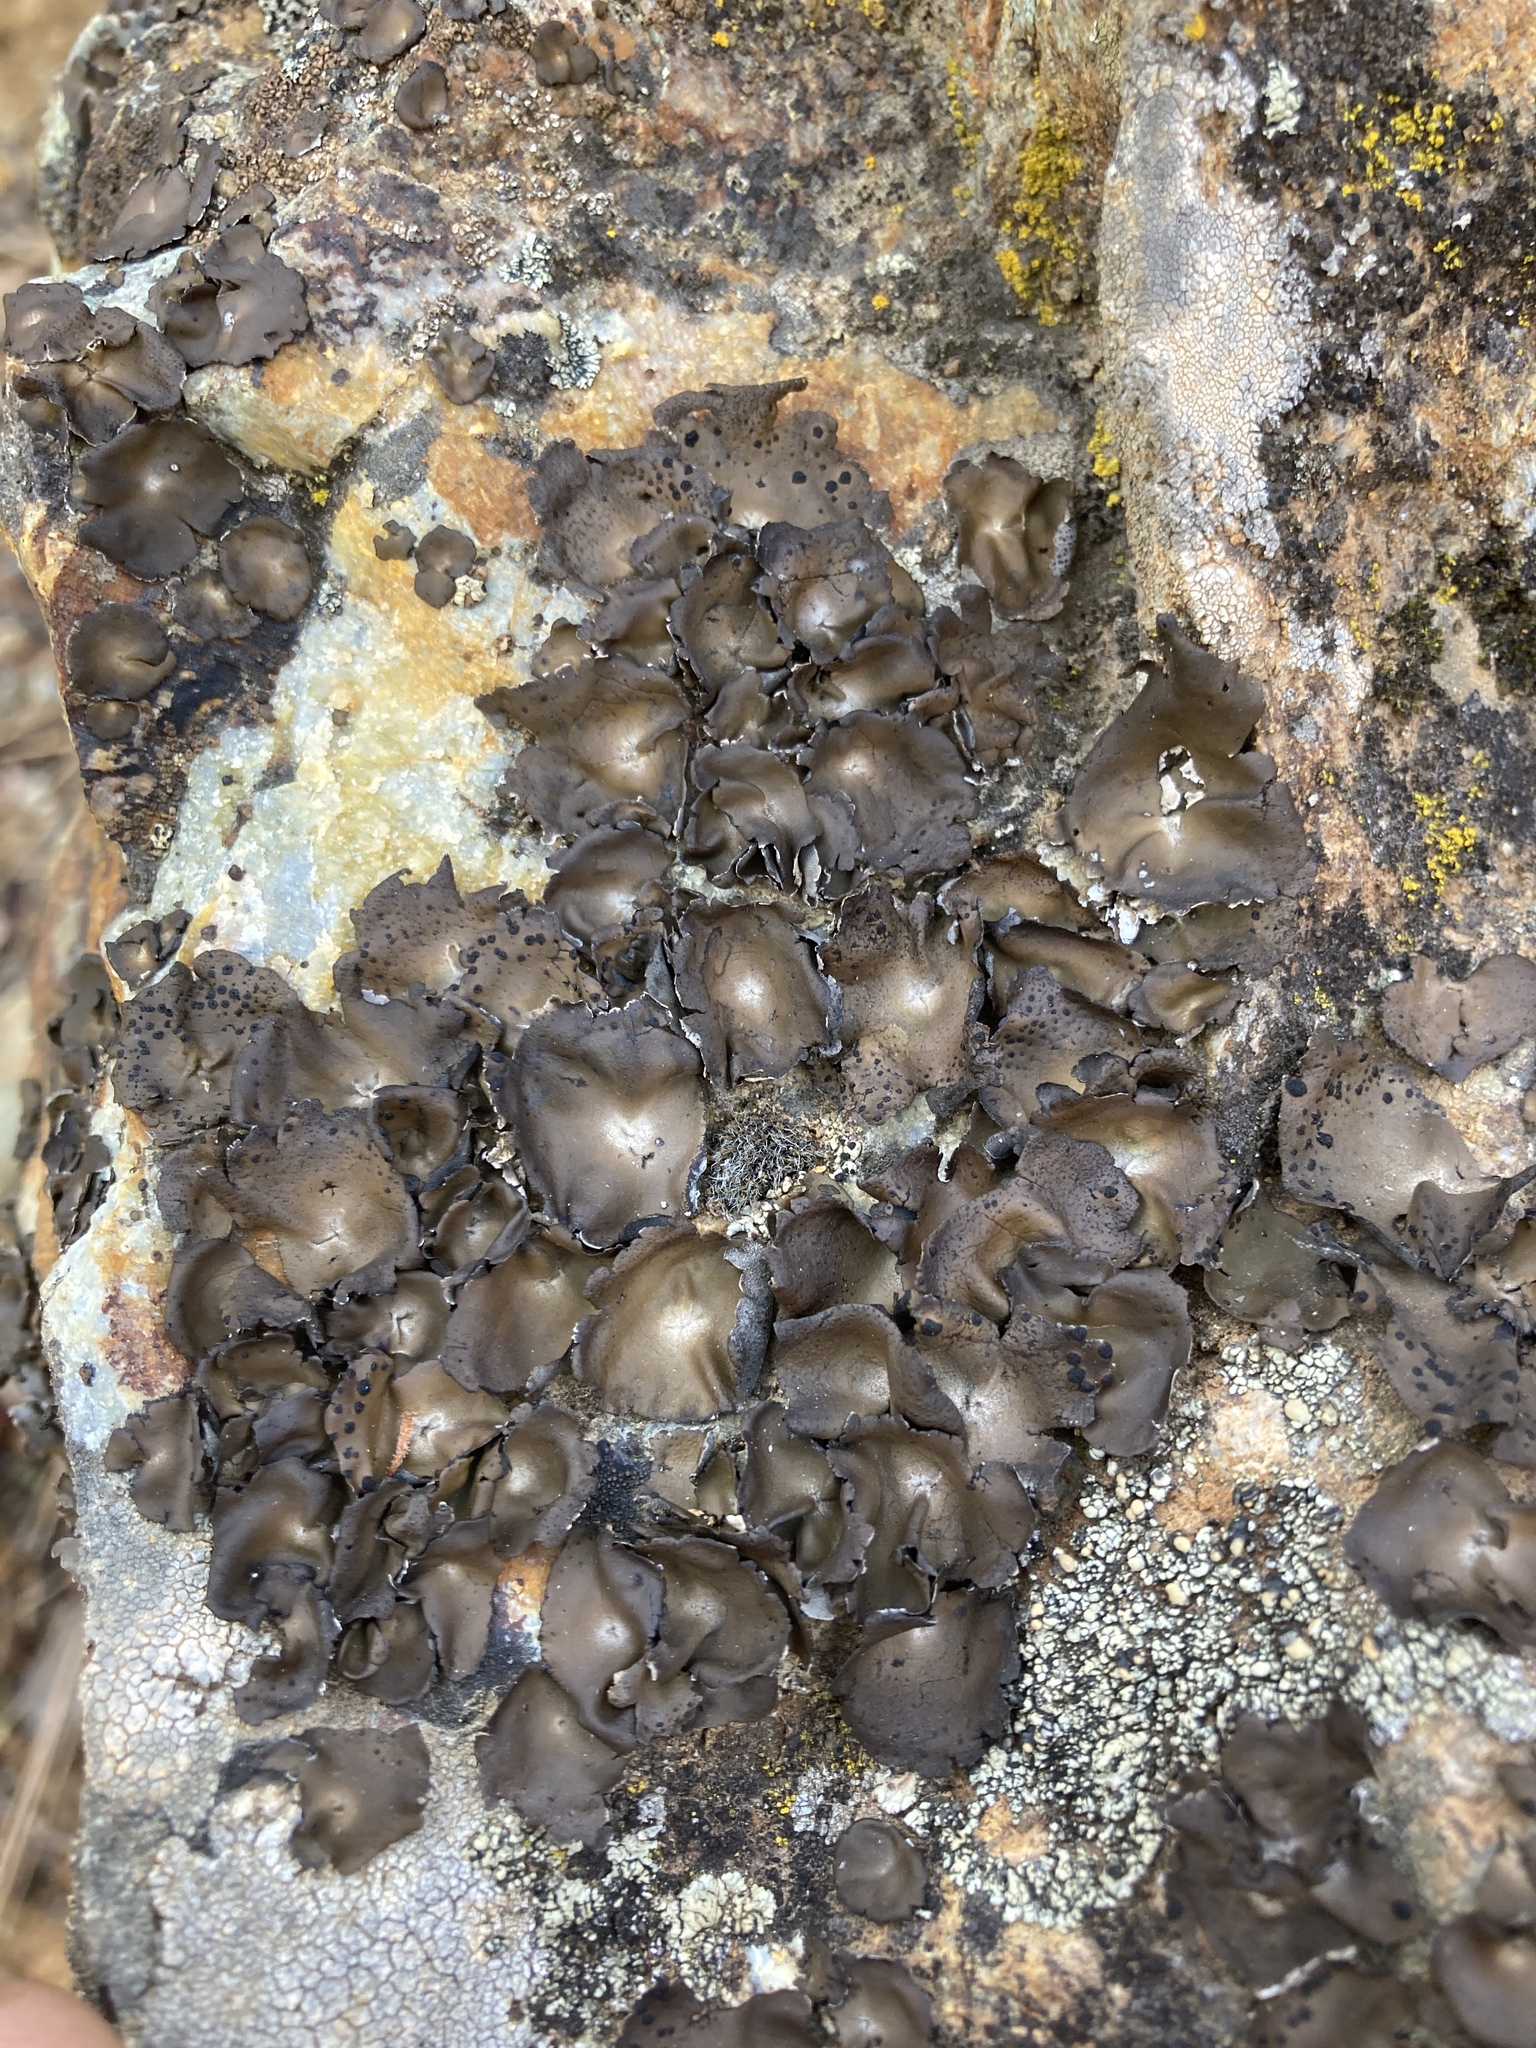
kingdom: Fungi
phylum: Ascomycota
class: Lecanoromycetes
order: Umbilicariales
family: Umbilicariaceae
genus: Umbilicaria
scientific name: Umbilicaria phaea
